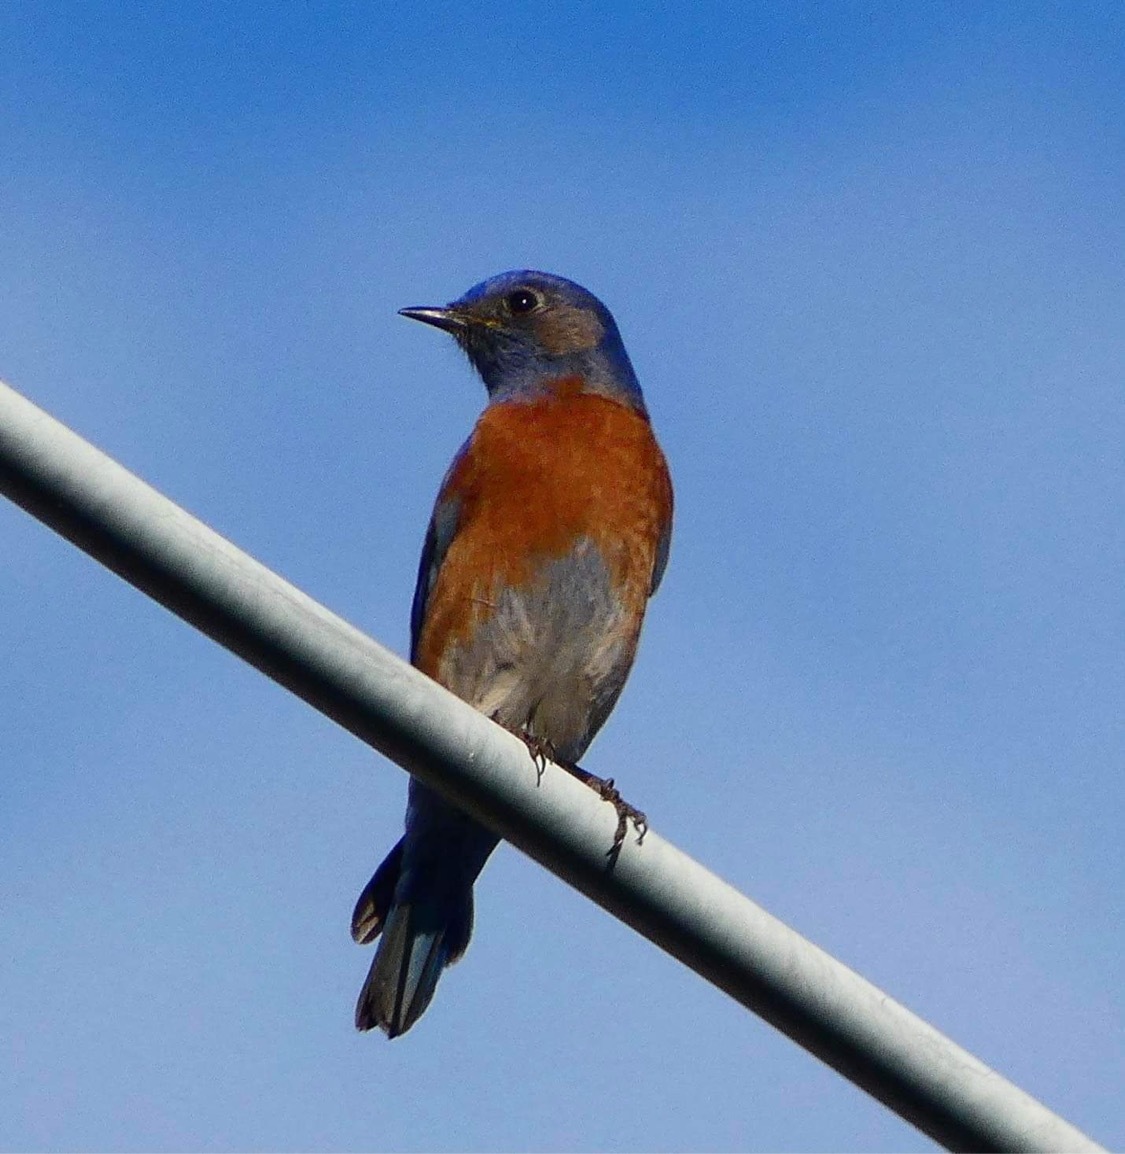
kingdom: Animalia
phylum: Chordata
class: Aves
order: Passeriformes
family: Turdidae
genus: Sialia
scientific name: Sialia mexicana
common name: Western bluebird
